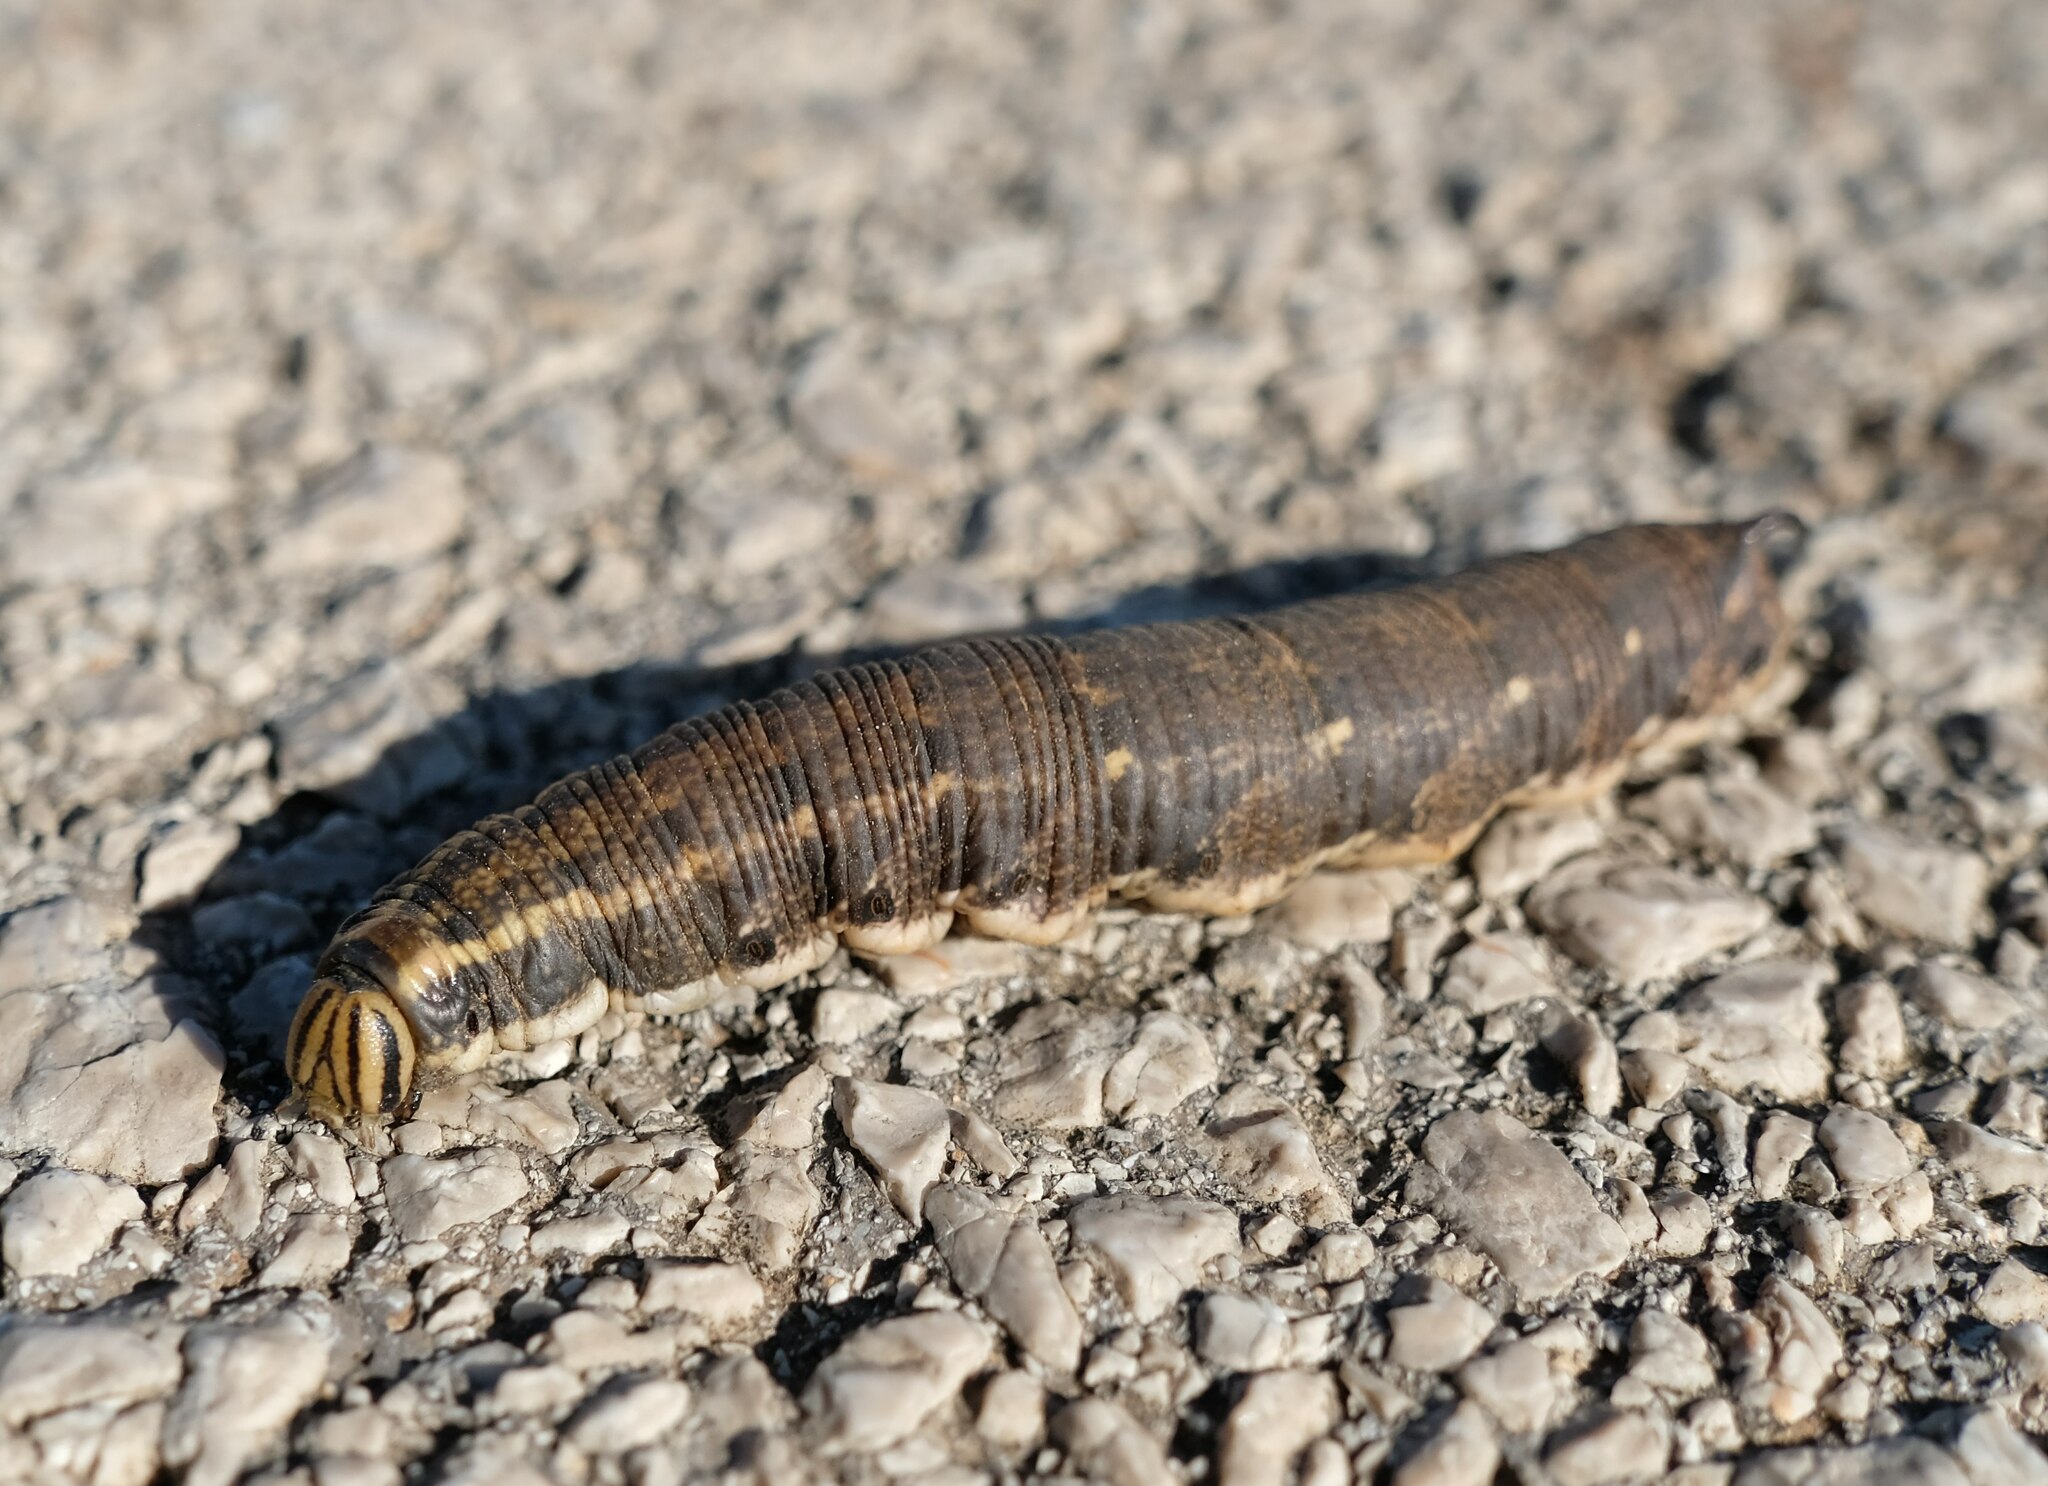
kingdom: Animalia
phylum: Arthropoda
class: Insecta
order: Lepidoptera
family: Sphingidae
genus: Agrius
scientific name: Agrius convolvuli
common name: Convolvulus hawkmoth
